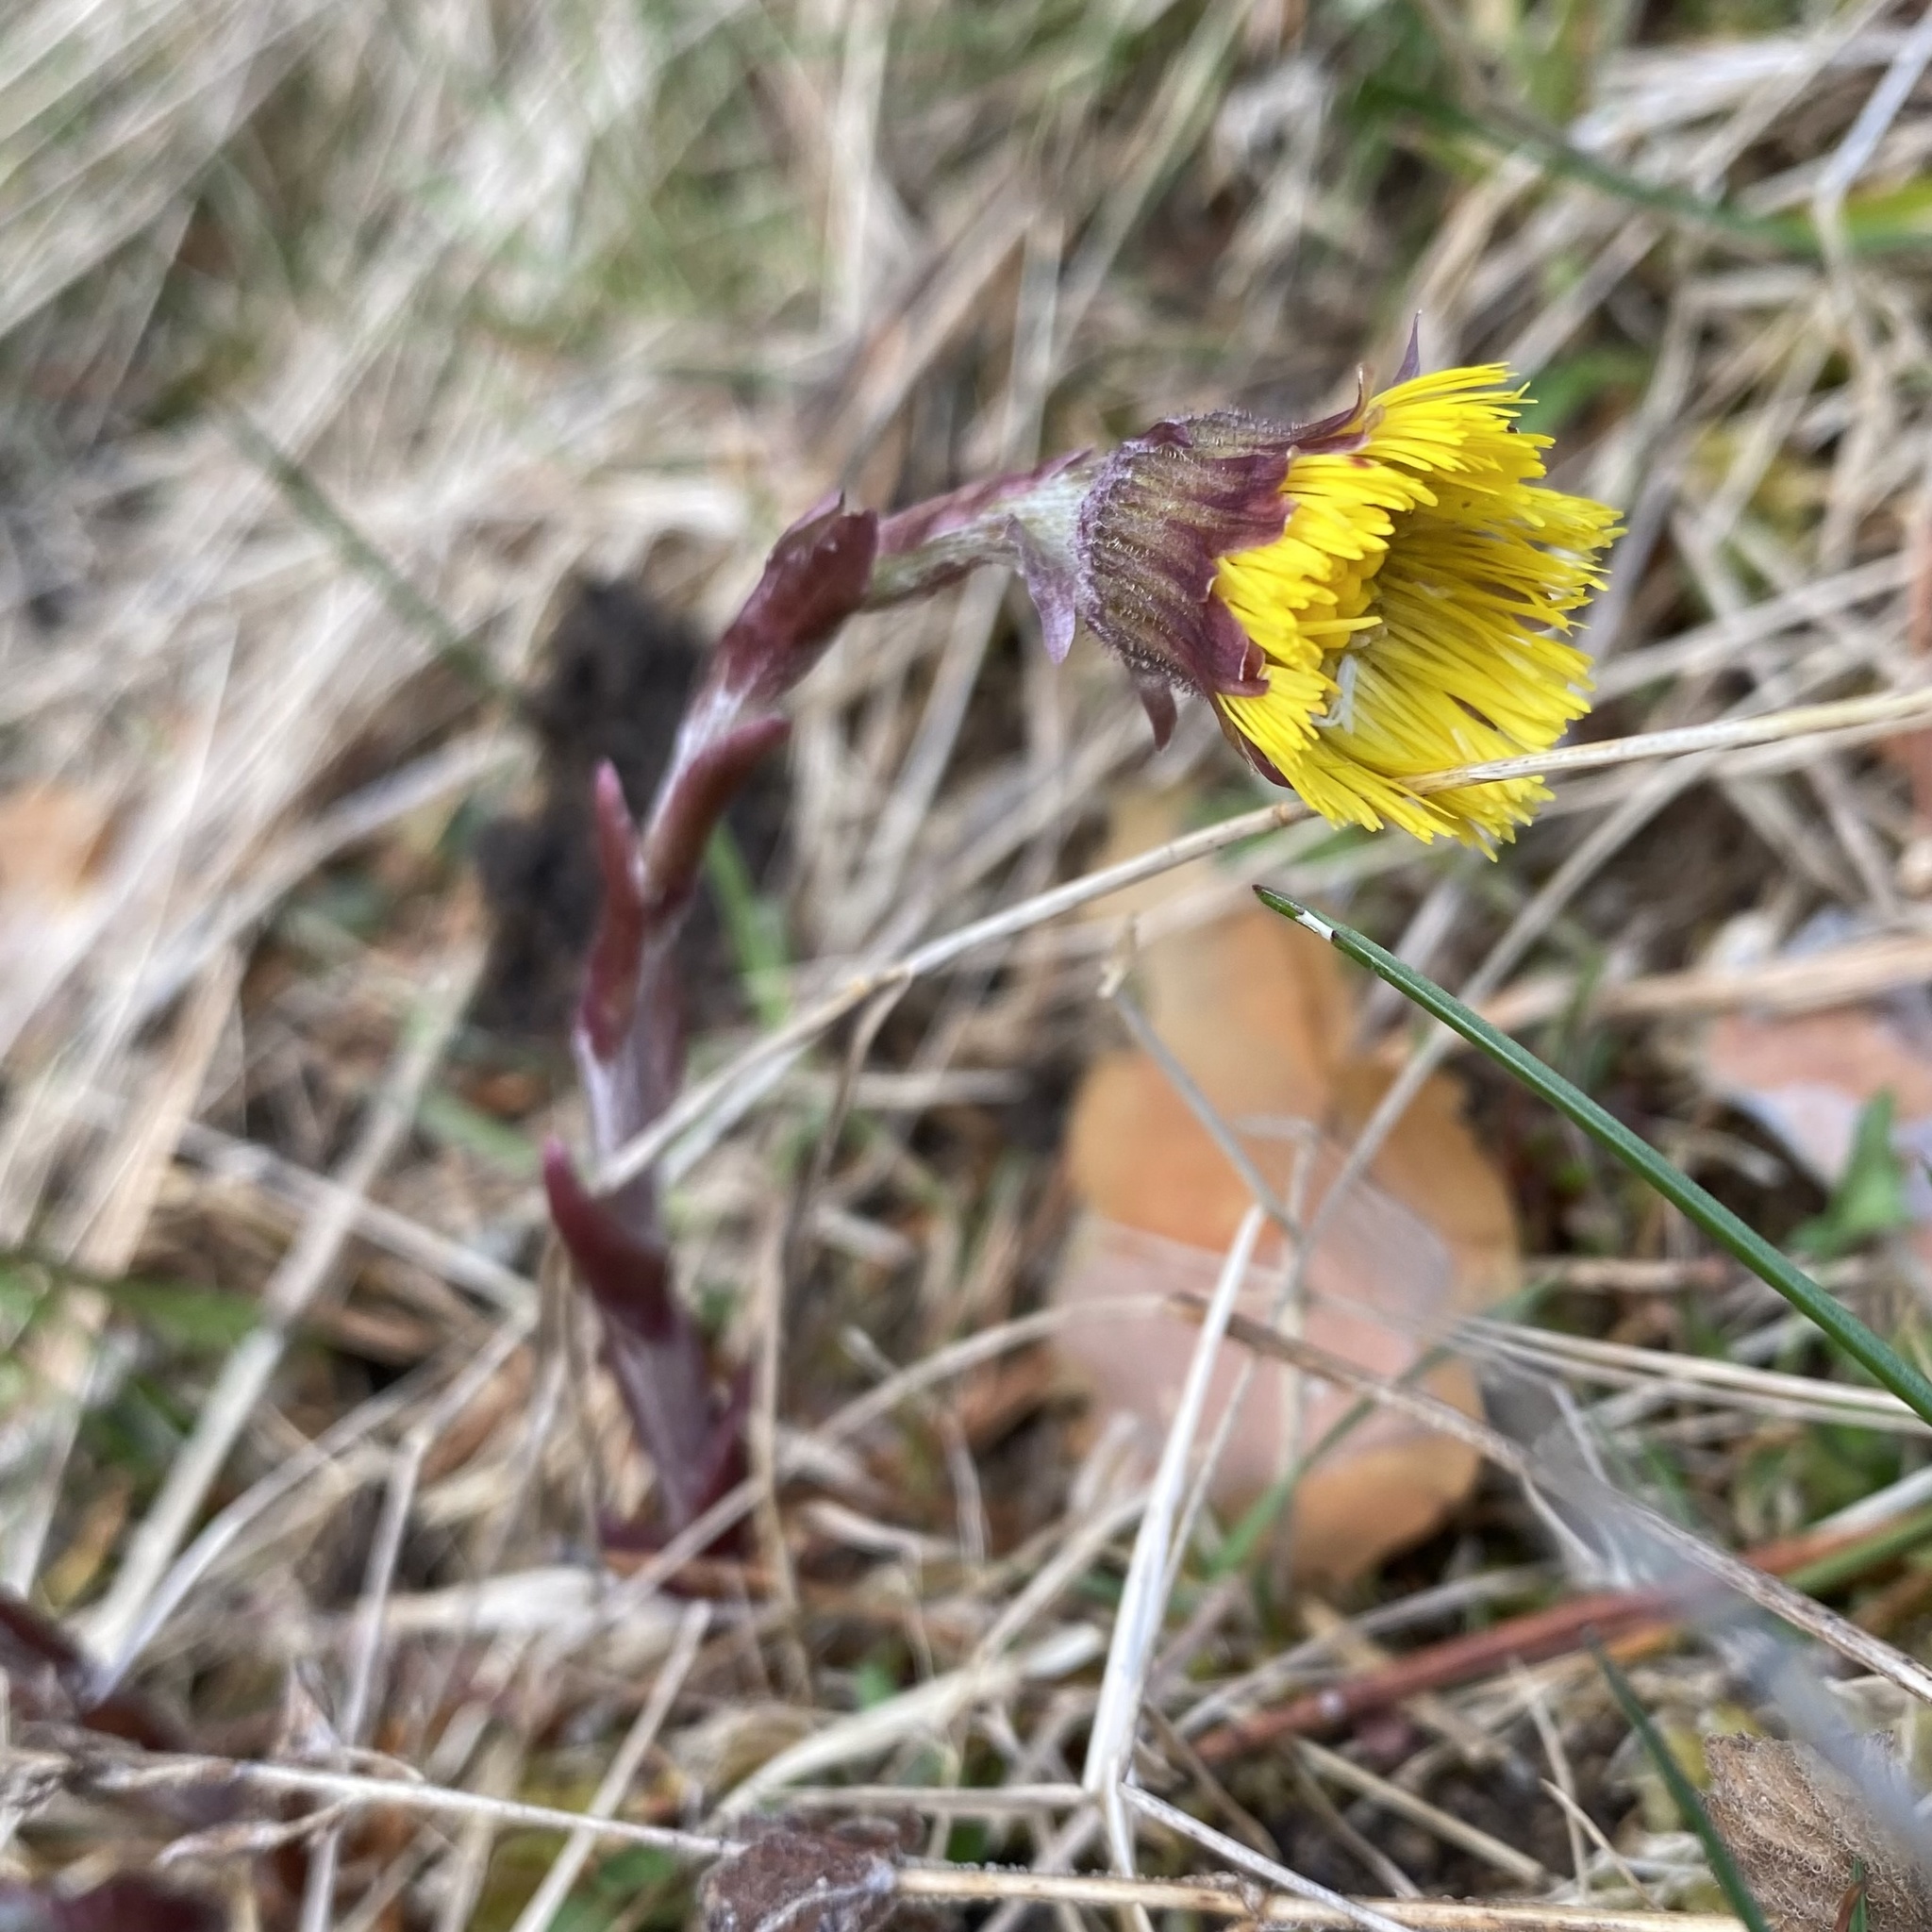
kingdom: Plantae
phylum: Tracheophyta
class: Magnoliopsida
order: Asterales
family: Asteraceae
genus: Tussilago
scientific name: Tussilago farfara
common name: Coltsfoot
